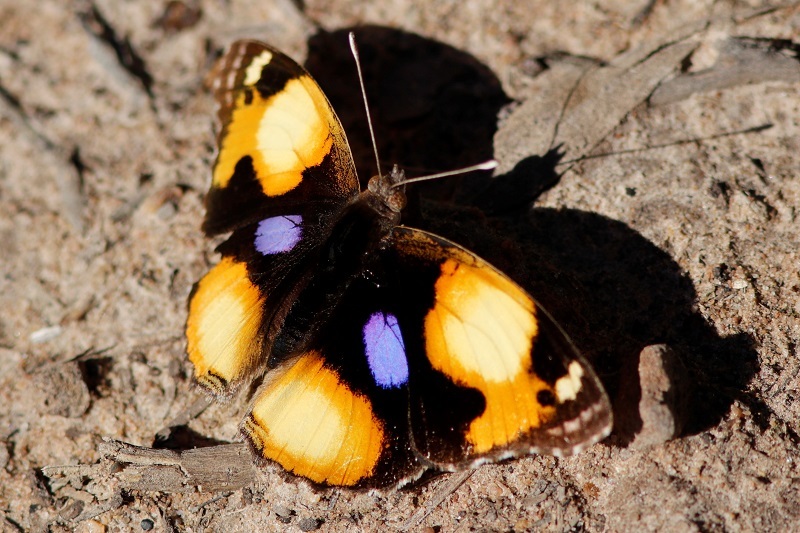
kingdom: Animalia
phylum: Arthropoda
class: Insecta
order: Lepidoptera
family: Nymphalidae
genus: Junonia
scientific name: Junonia hierta
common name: Yellow pansy
